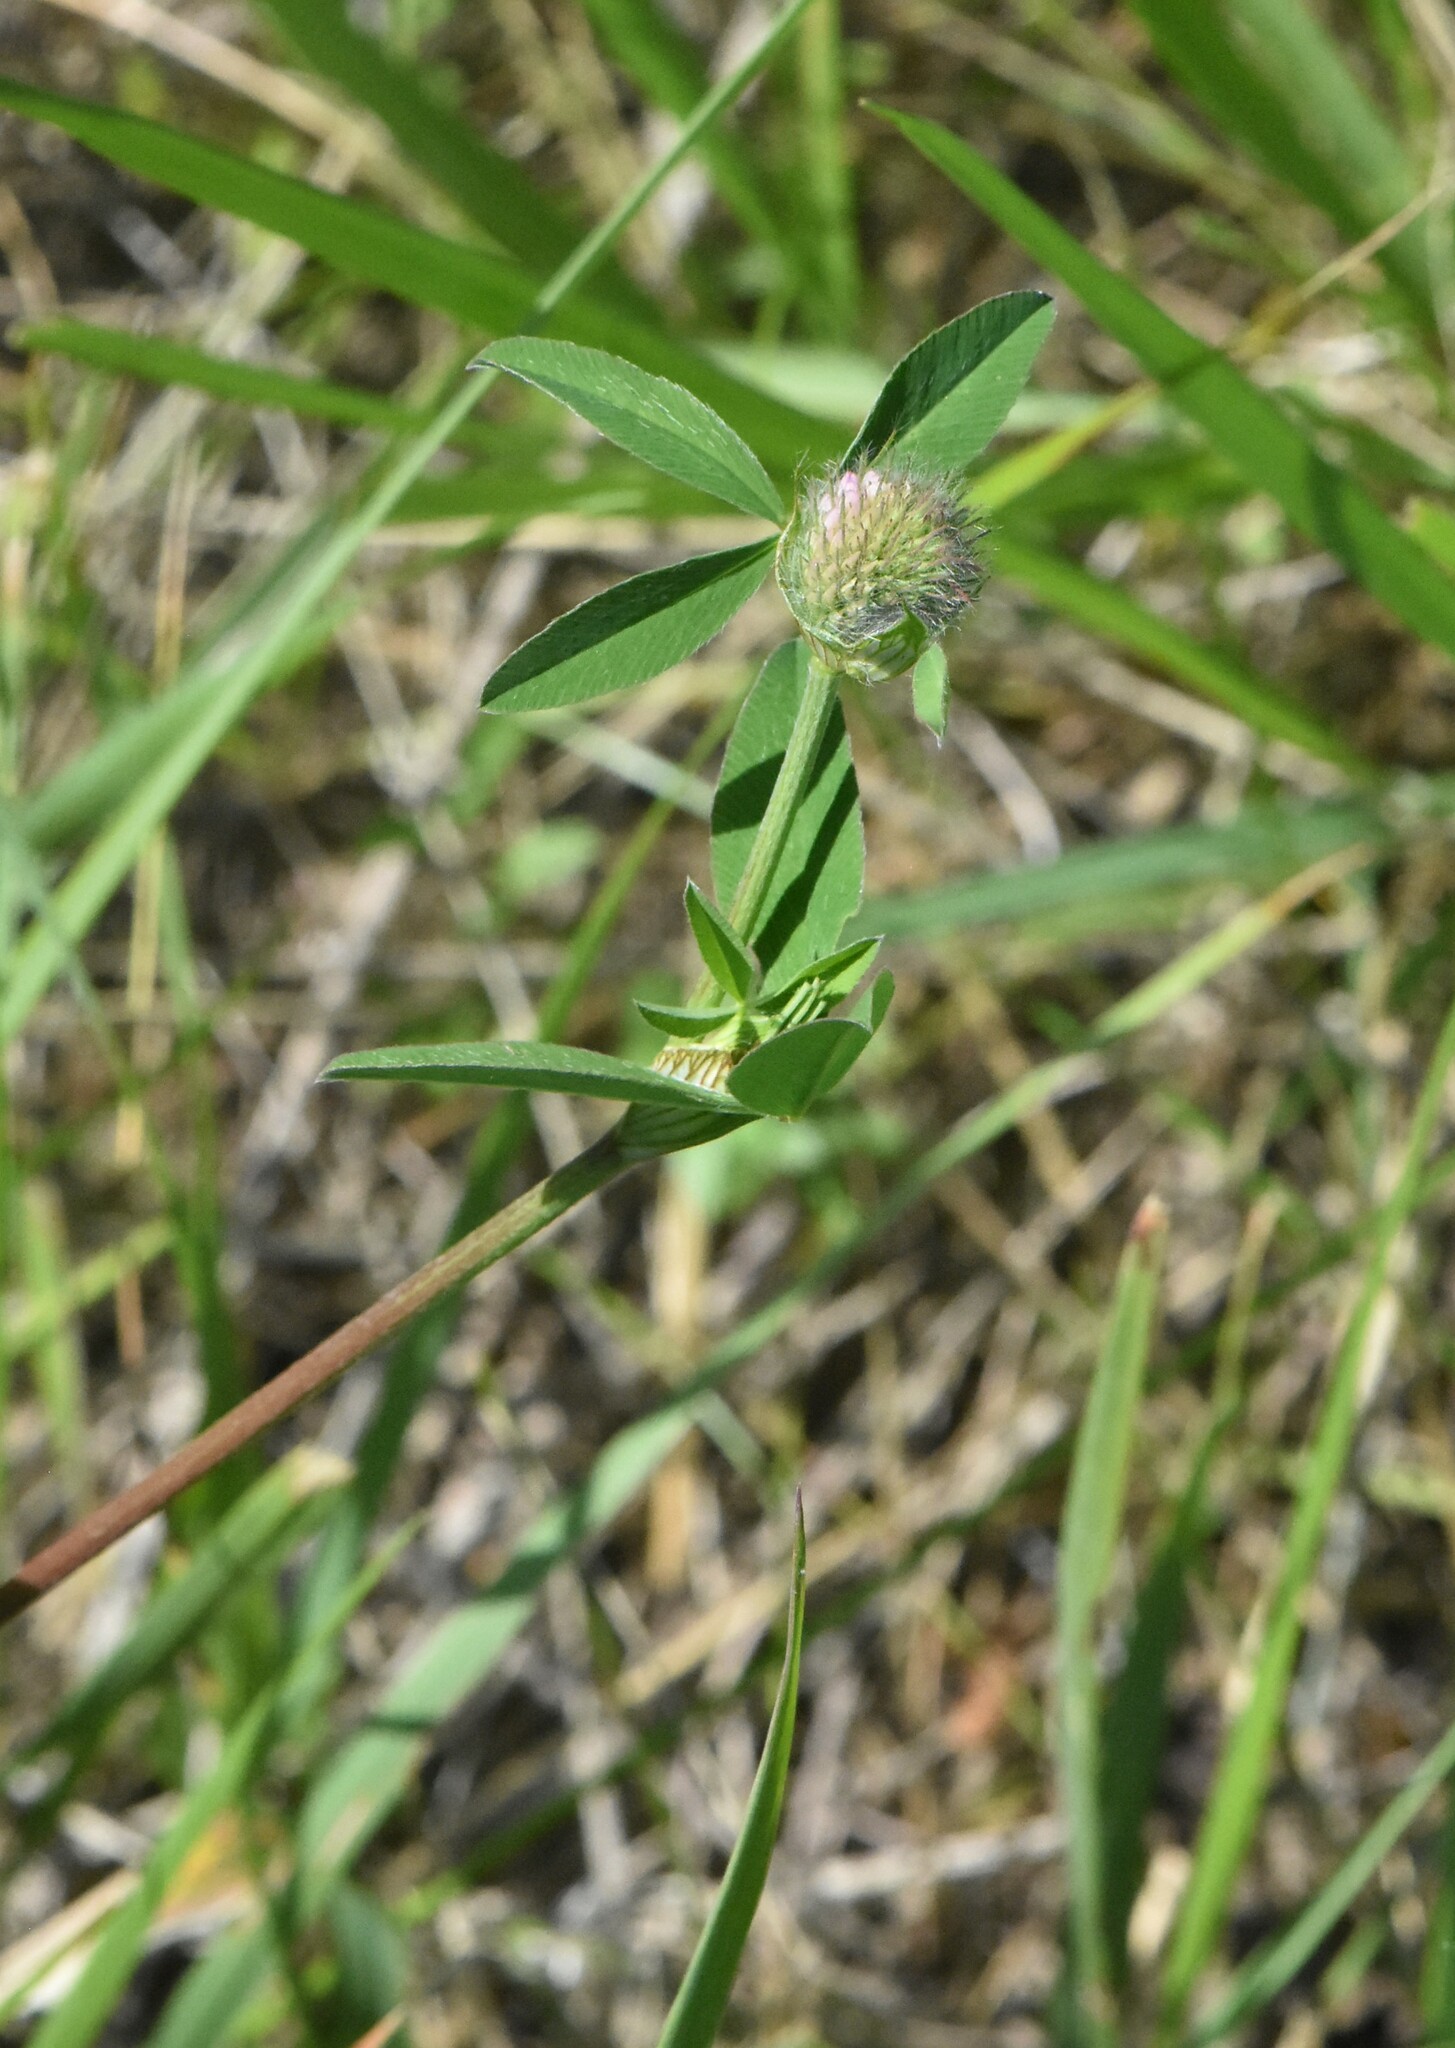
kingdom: Plantae
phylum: Tracheophyta
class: Magnoliopsida
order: Fabales
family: Fabaceae
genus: Trifolium
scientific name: Trifolium medium
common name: Zigzag clover
